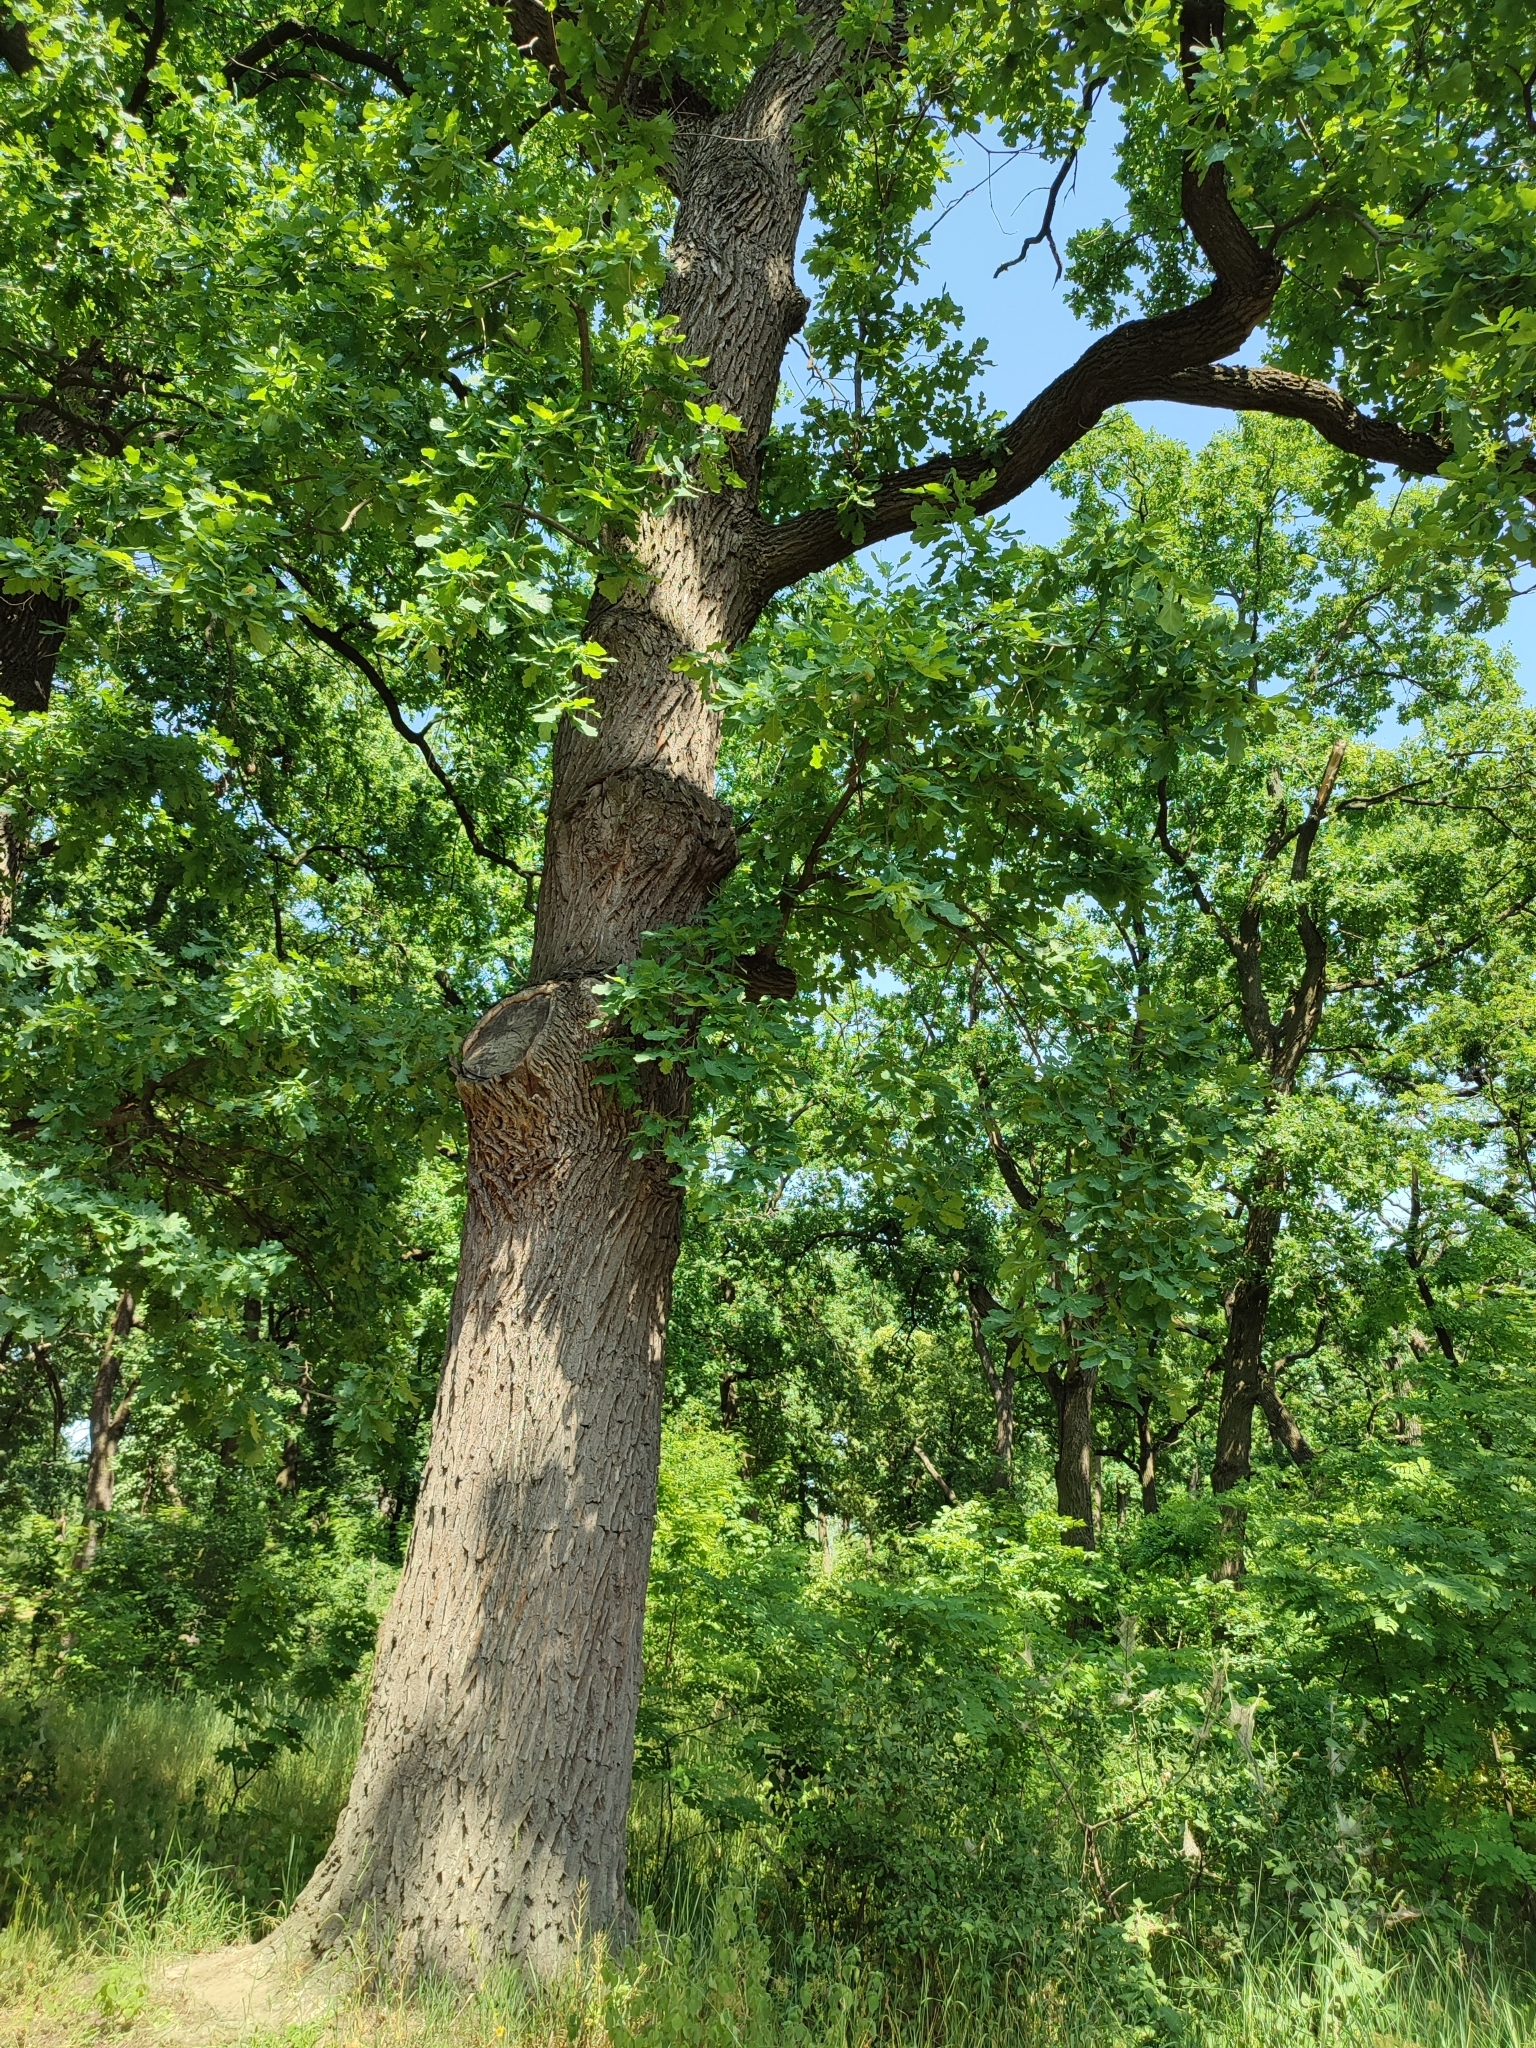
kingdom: Plantae
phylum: Tracheophyta
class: Magnoliopsida
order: Fagales
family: Fagaceae
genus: Quercus
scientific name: Quercus robur
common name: Pedunculate oak
